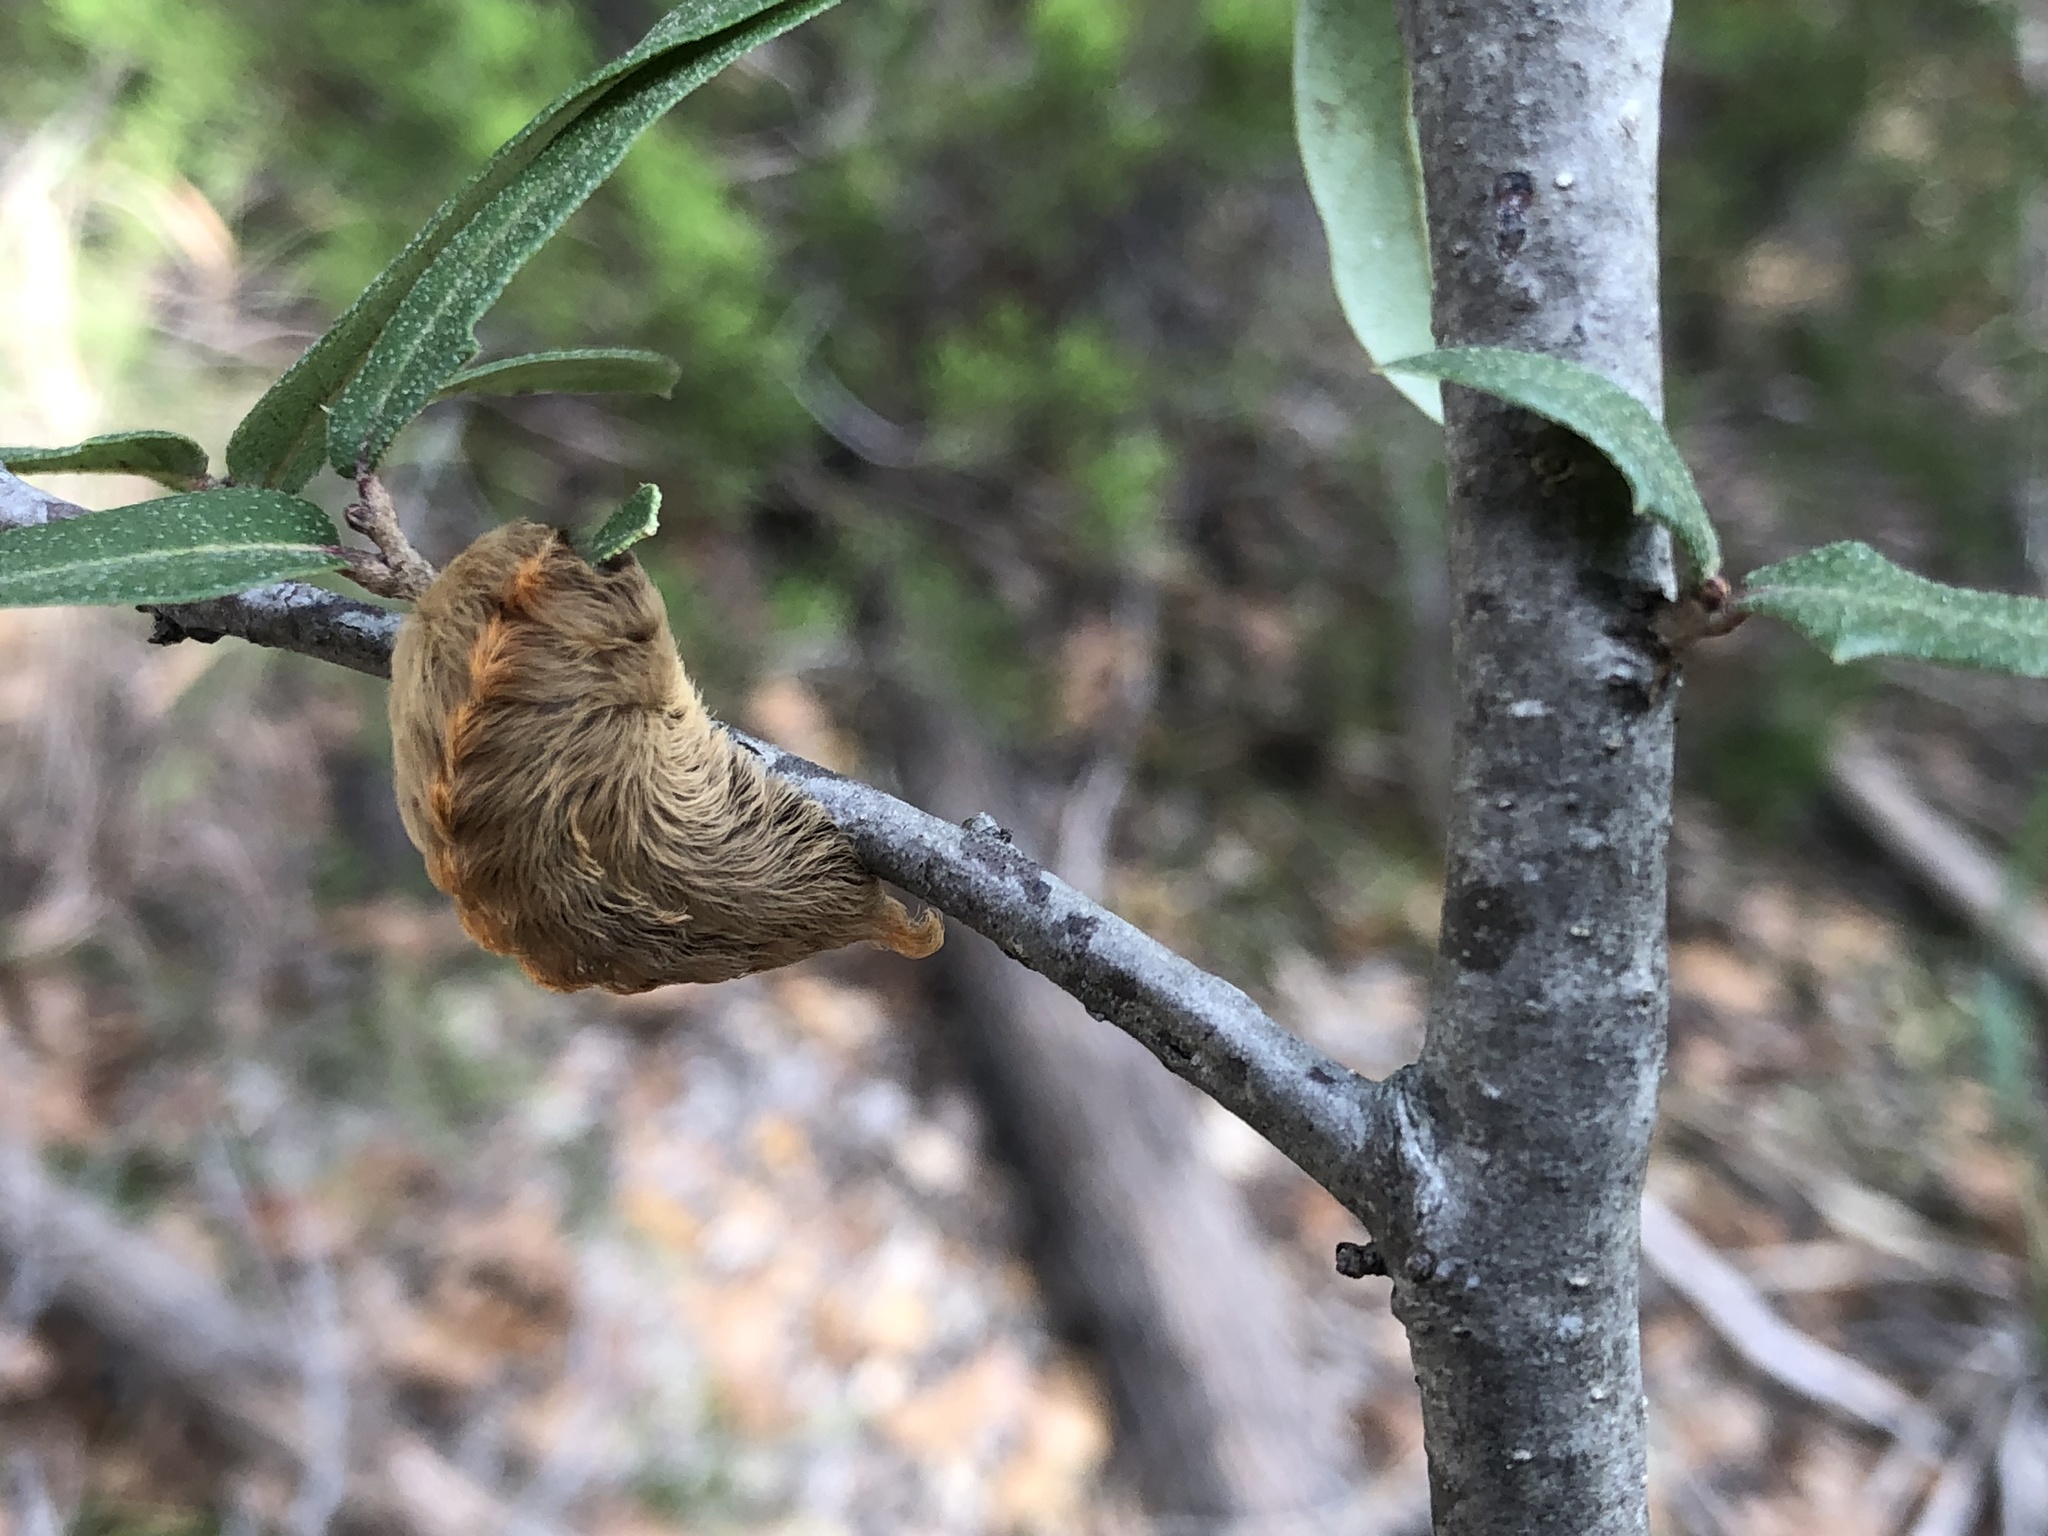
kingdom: Animalia
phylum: Arthropoda
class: Insecta
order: Lepidoptera
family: Megalopygidae
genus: Megalopyge
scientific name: Megalopyge opercularis
